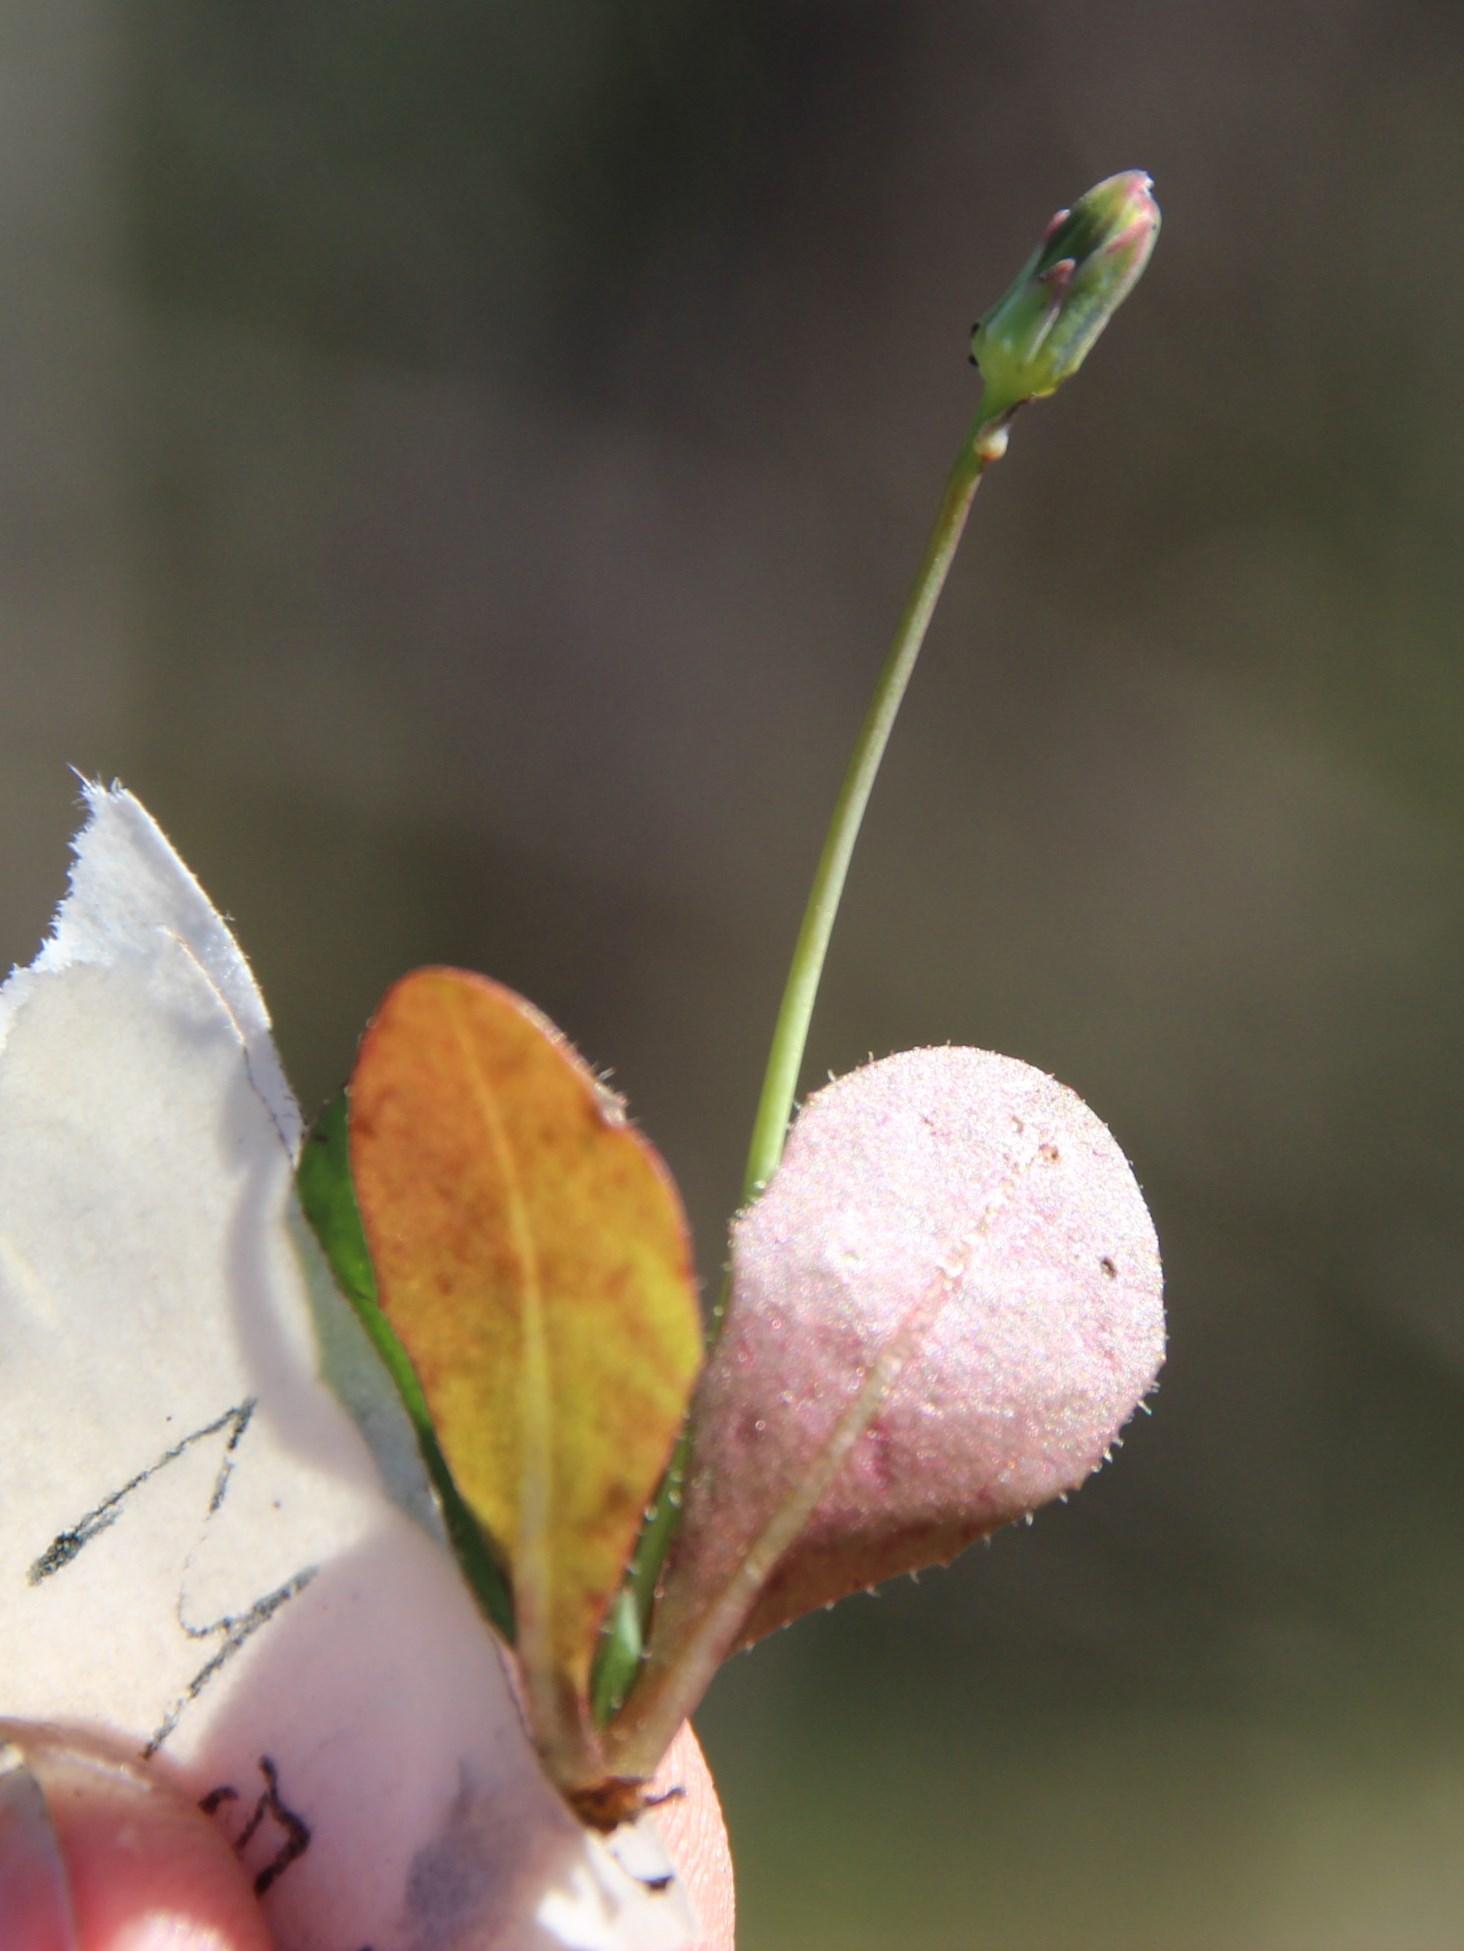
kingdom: Plantae
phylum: Tracheophyta
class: Magnoliopsida
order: Asterales
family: Asteraceae
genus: Hypochaeris
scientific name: Hypochaeris glabra
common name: Smooth catsear
